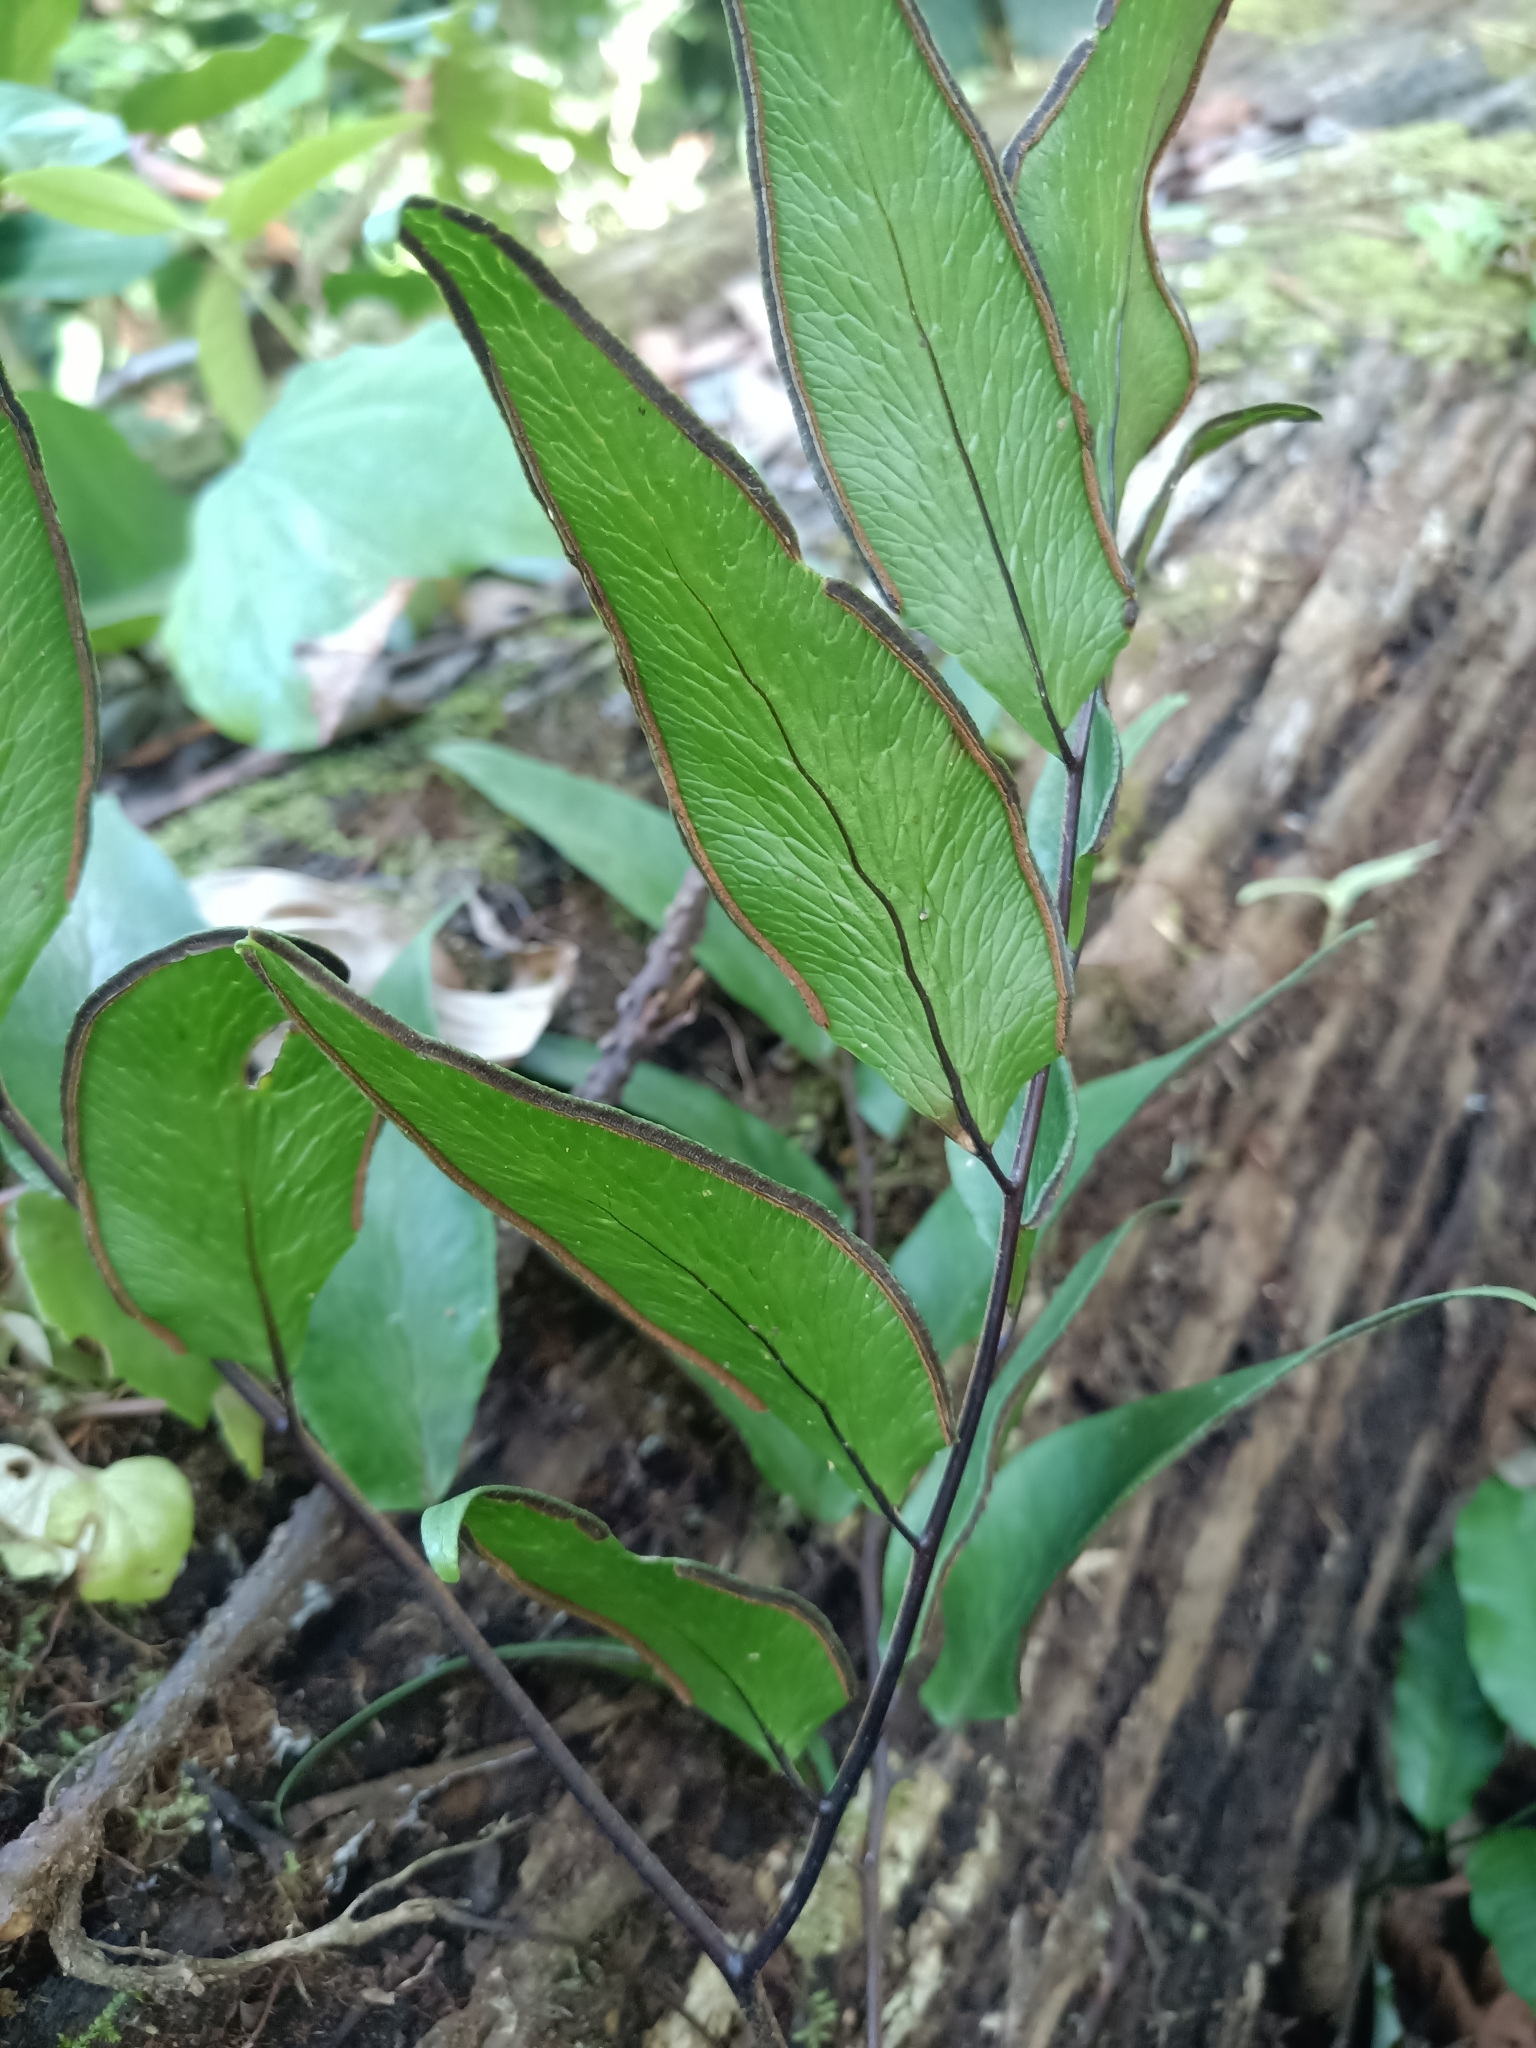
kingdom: Plantae
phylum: Tracheophyta
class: Polypodiopsida
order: Polypodiales
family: Pteridaceae
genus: Adiantum
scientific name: Adiantum adiantoides
